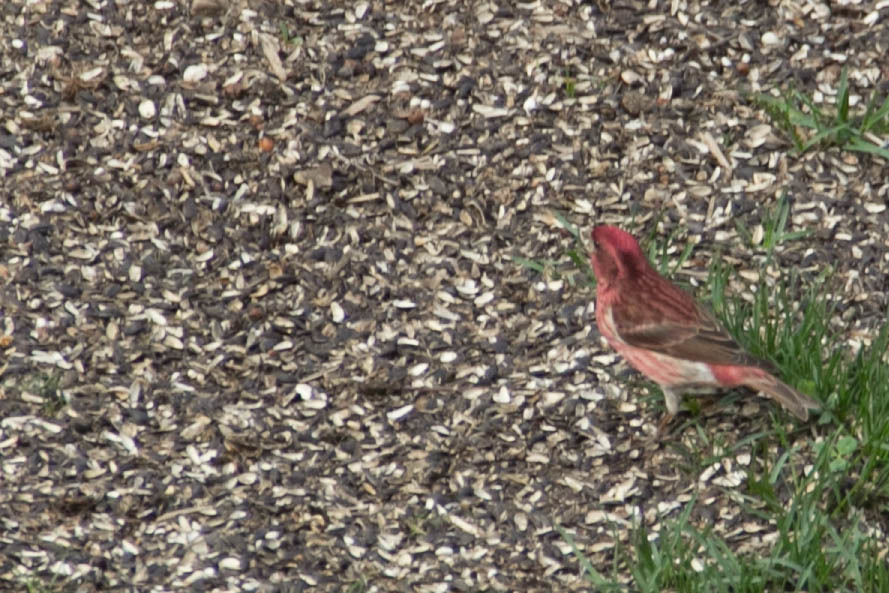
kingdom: Animalia
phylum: Chordata
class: Aves
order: Passeriformes
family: Fringillidae
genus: Haemorhous
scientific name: Haemorhous purpureus
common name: Purple finch
